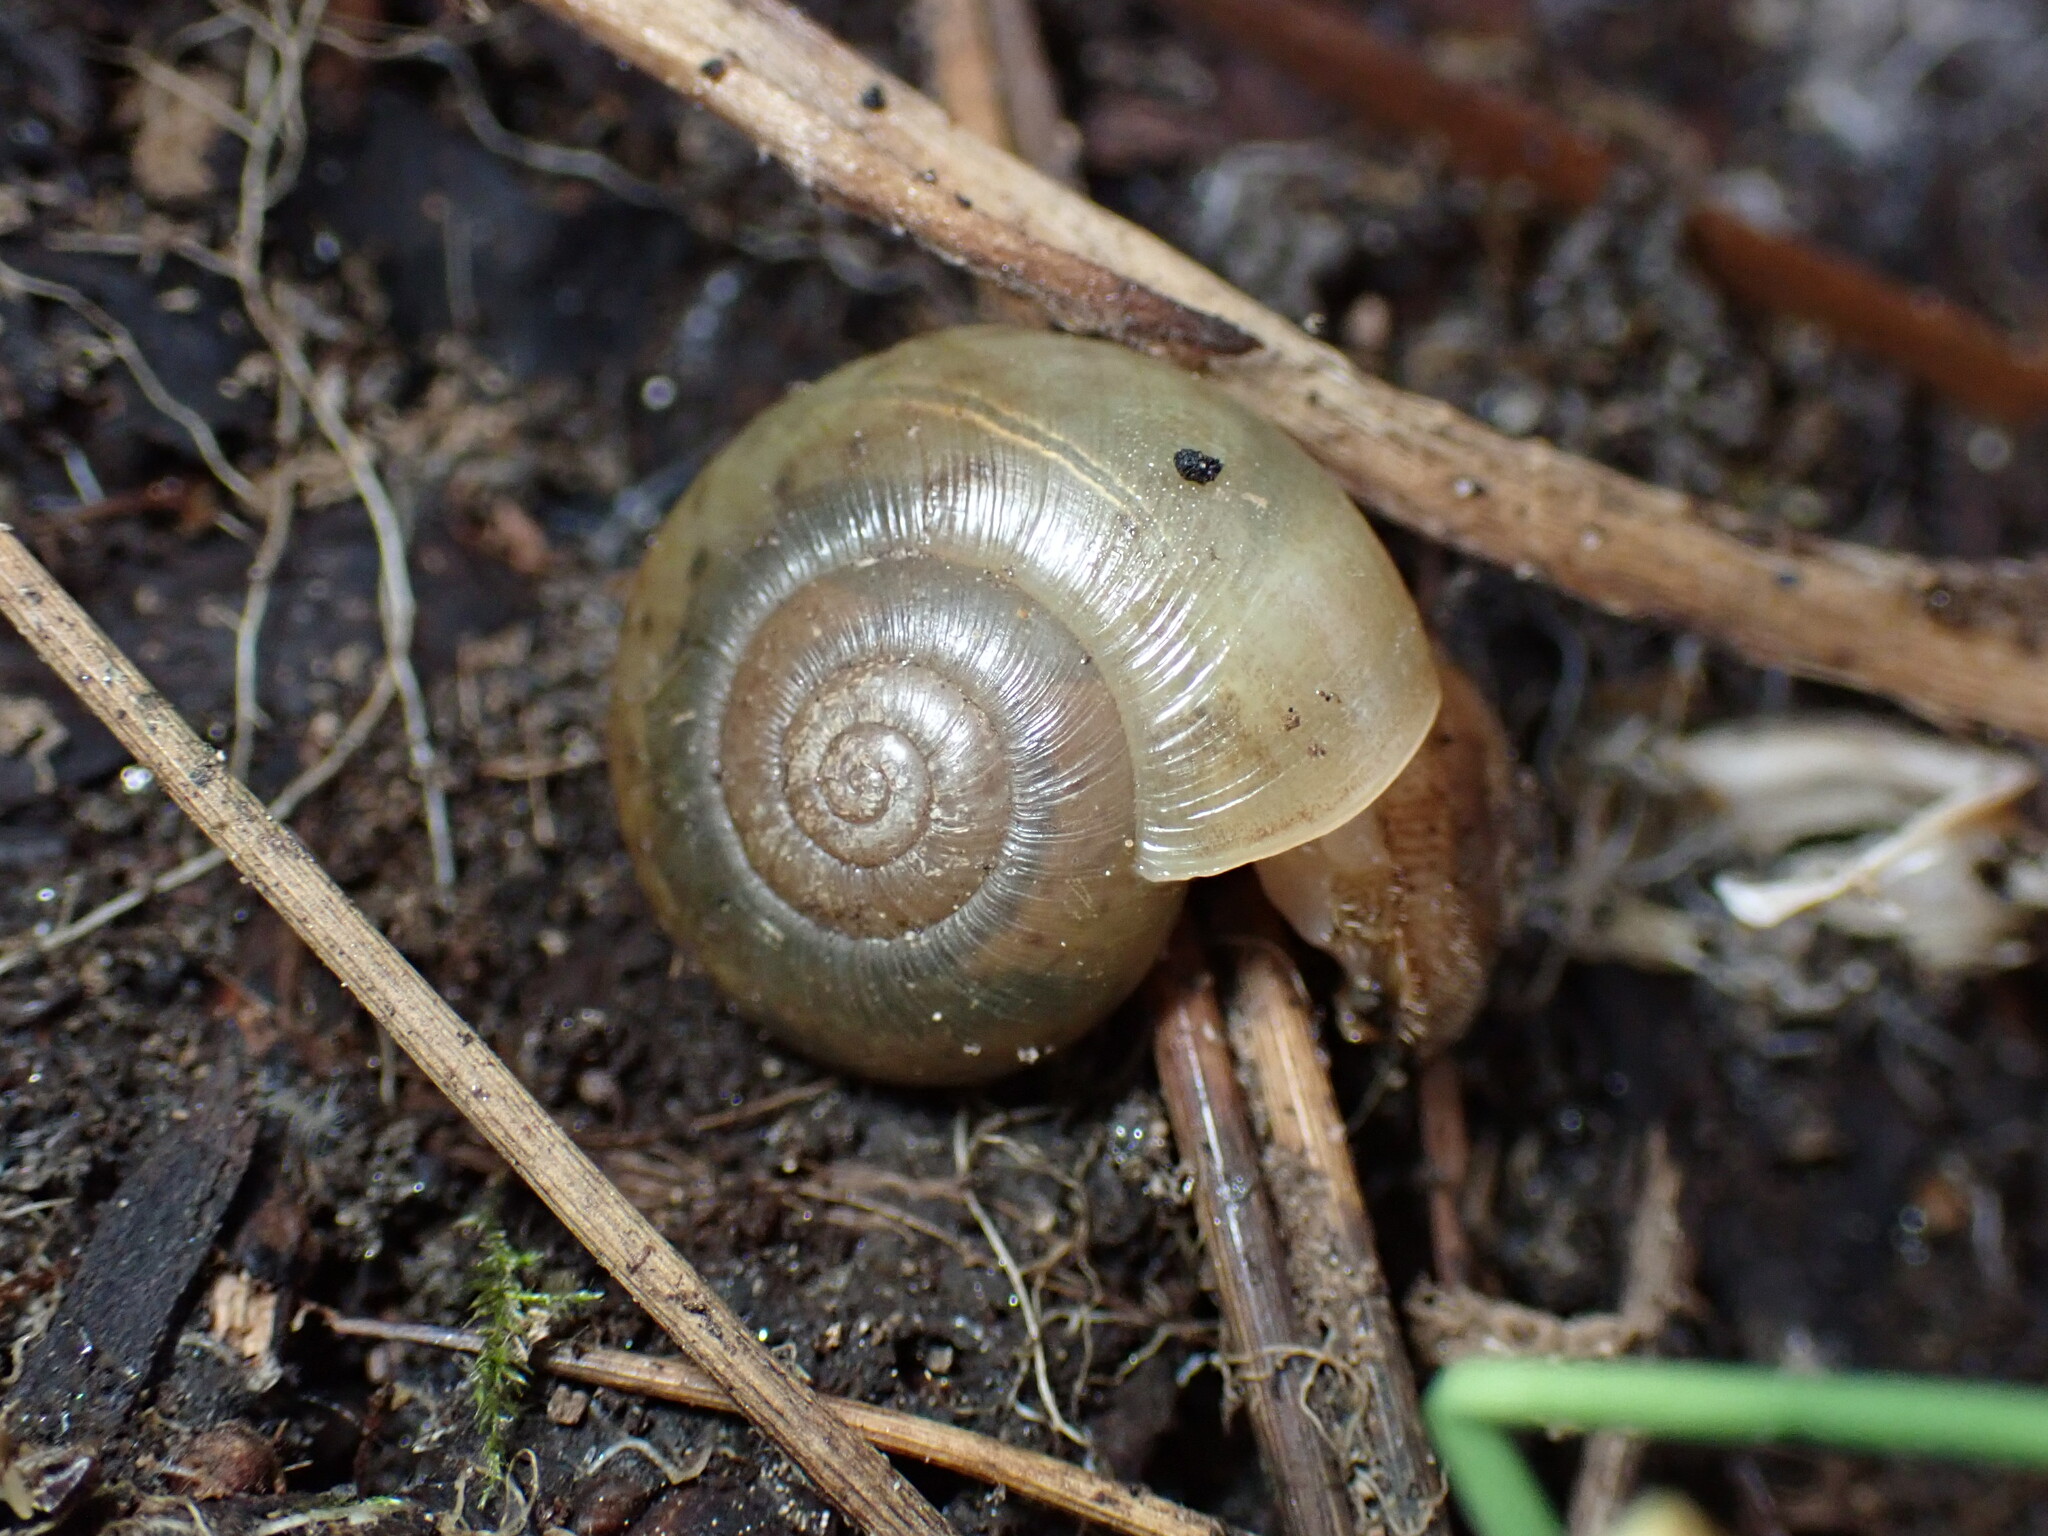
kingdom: Animalia
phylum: Mollusca
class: Gastropoda
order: Stylommatophora
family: Haplotrematidae
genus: Haplotrema
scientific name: Haplotrema minimum
